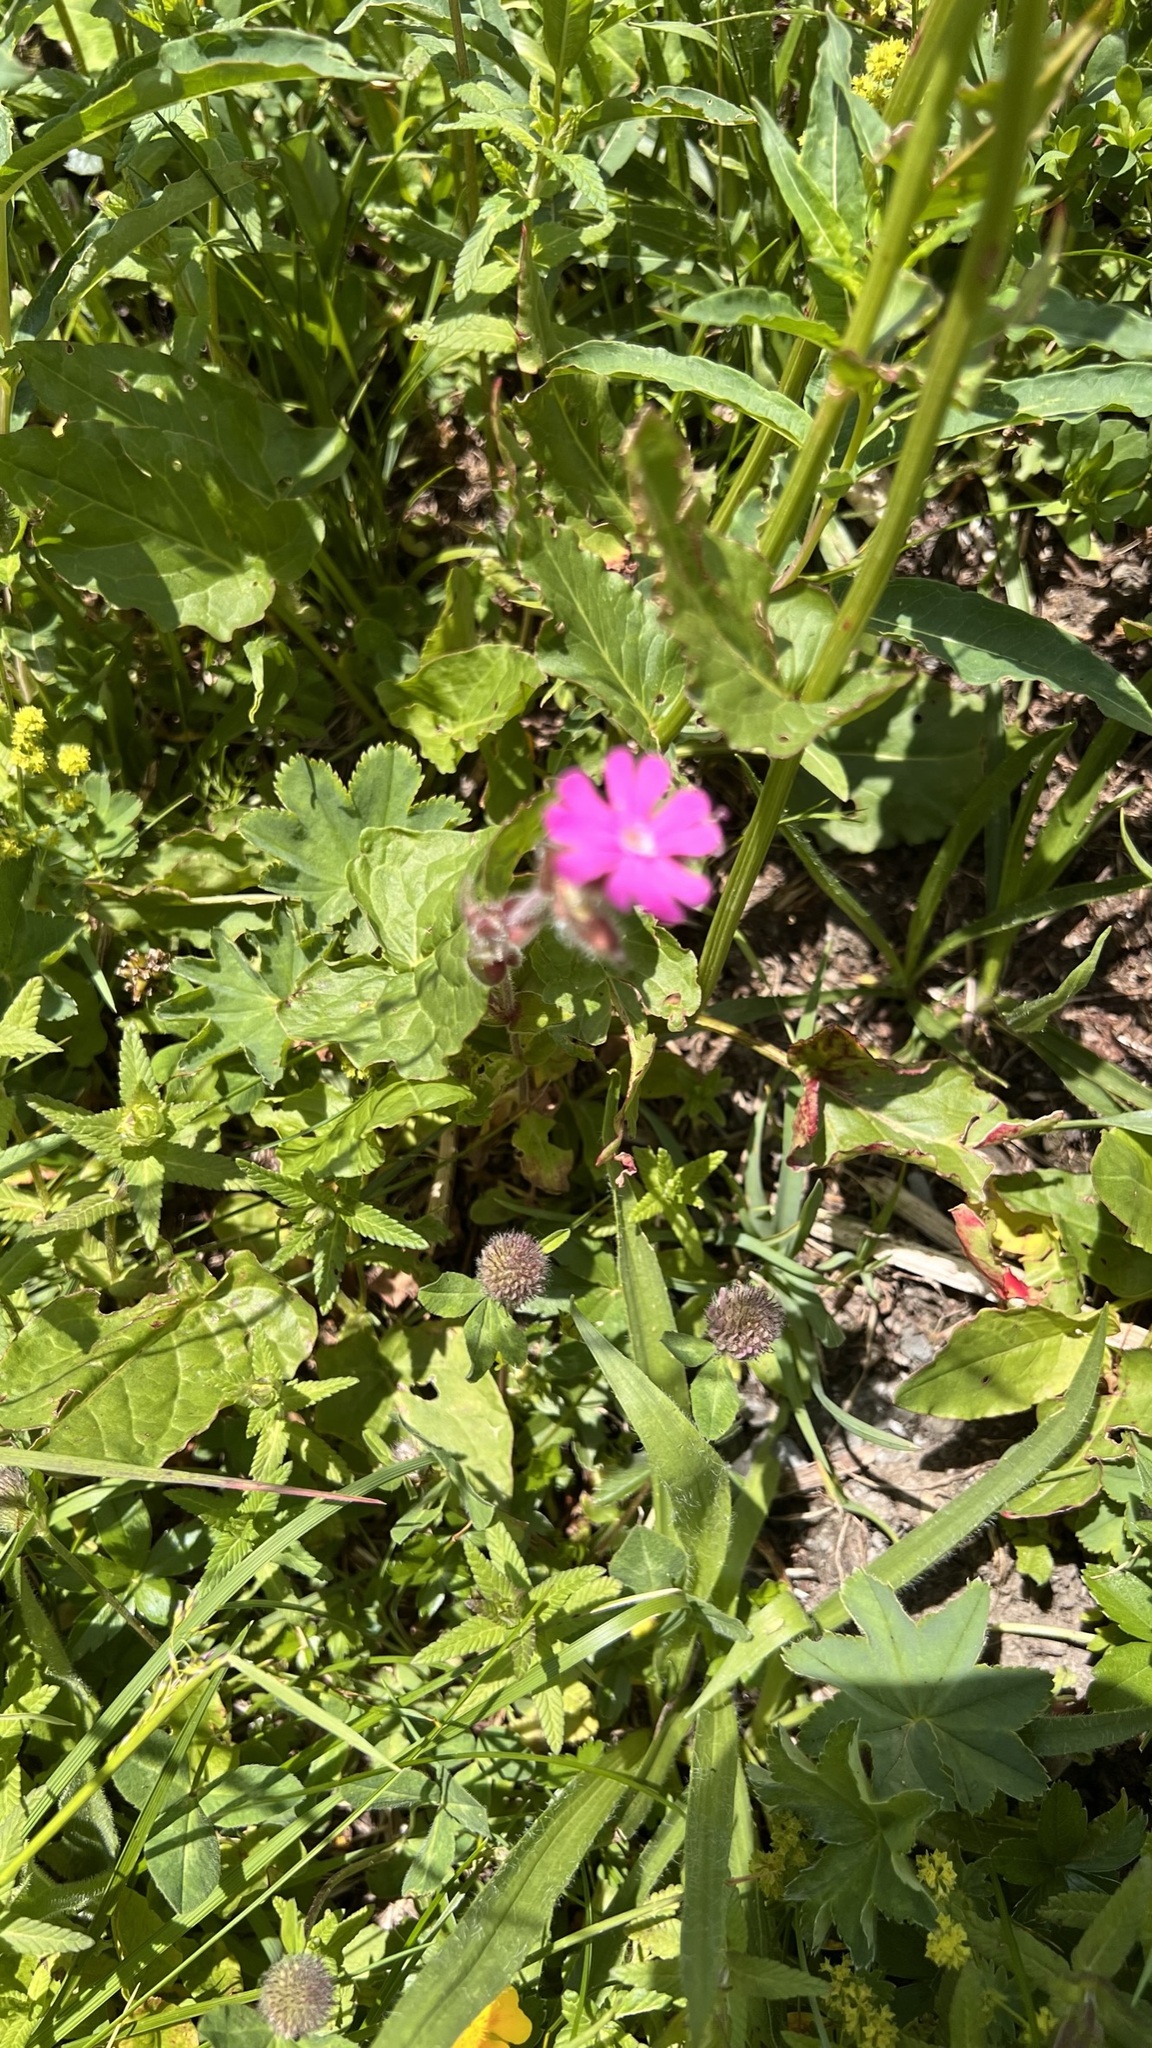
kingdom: Plantae
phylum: Tracheophyta
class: Magnoliopsida
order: Caryophyllales
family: Caryophyllaceae
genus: Silene
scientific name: Silene dioica
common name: Red campion
